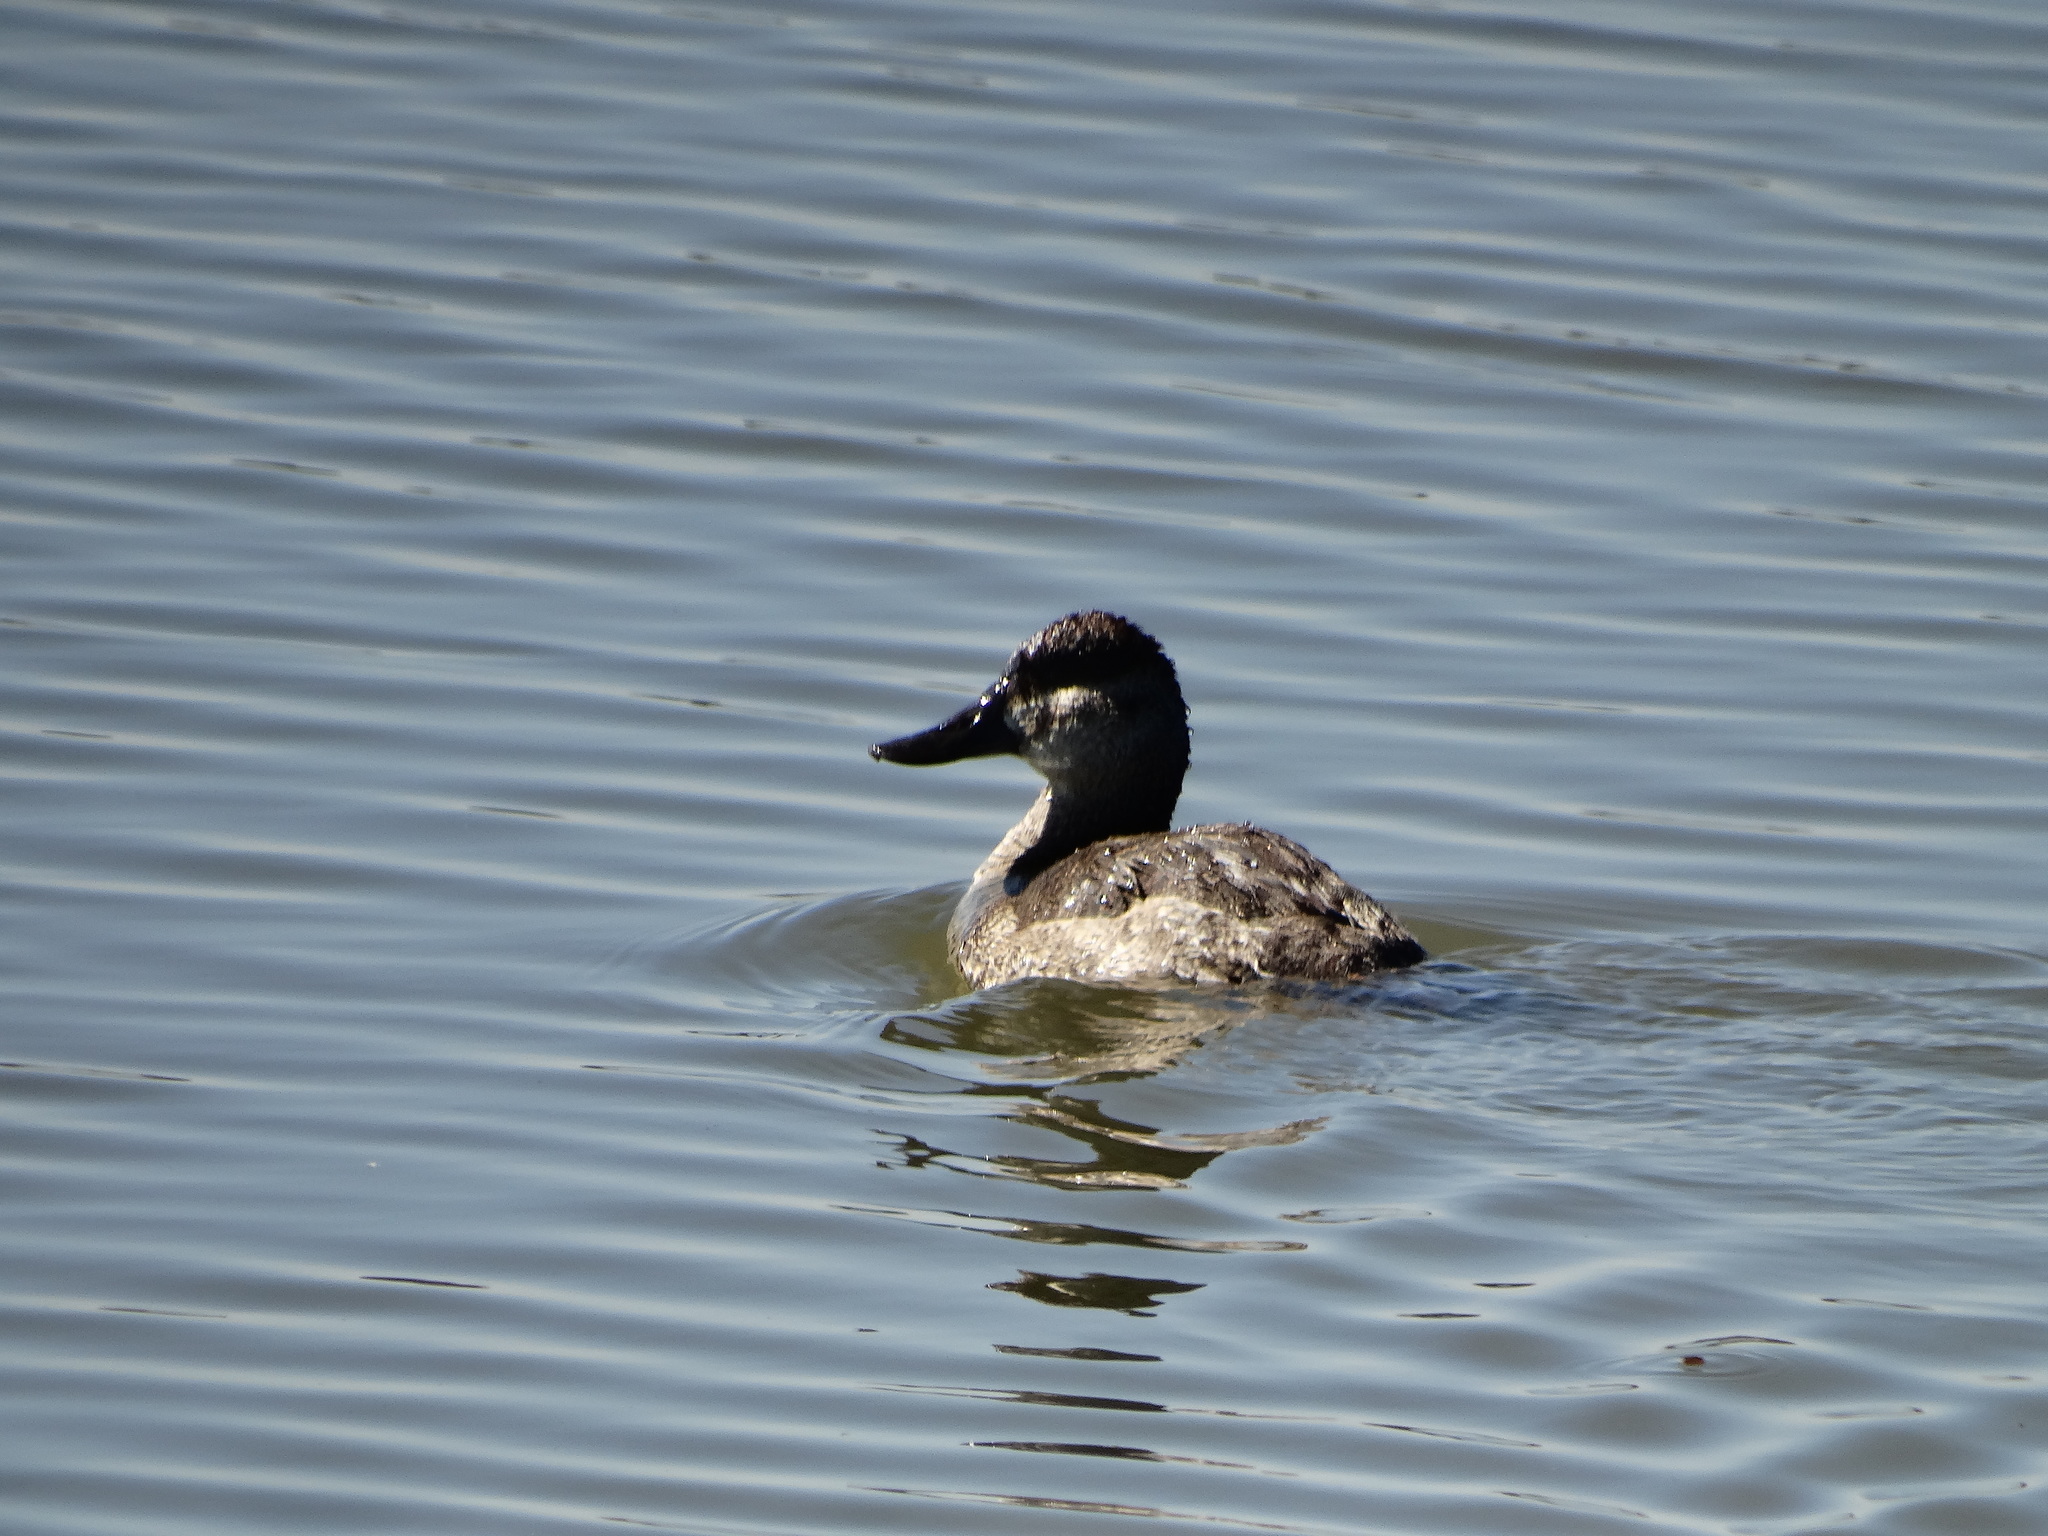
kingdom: Animalia
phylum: Chordata
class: Aves
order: Anseriformes
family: Anatidae
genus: Oxyura
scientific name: Oxyura jamaicensis
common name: Ruddy duck
